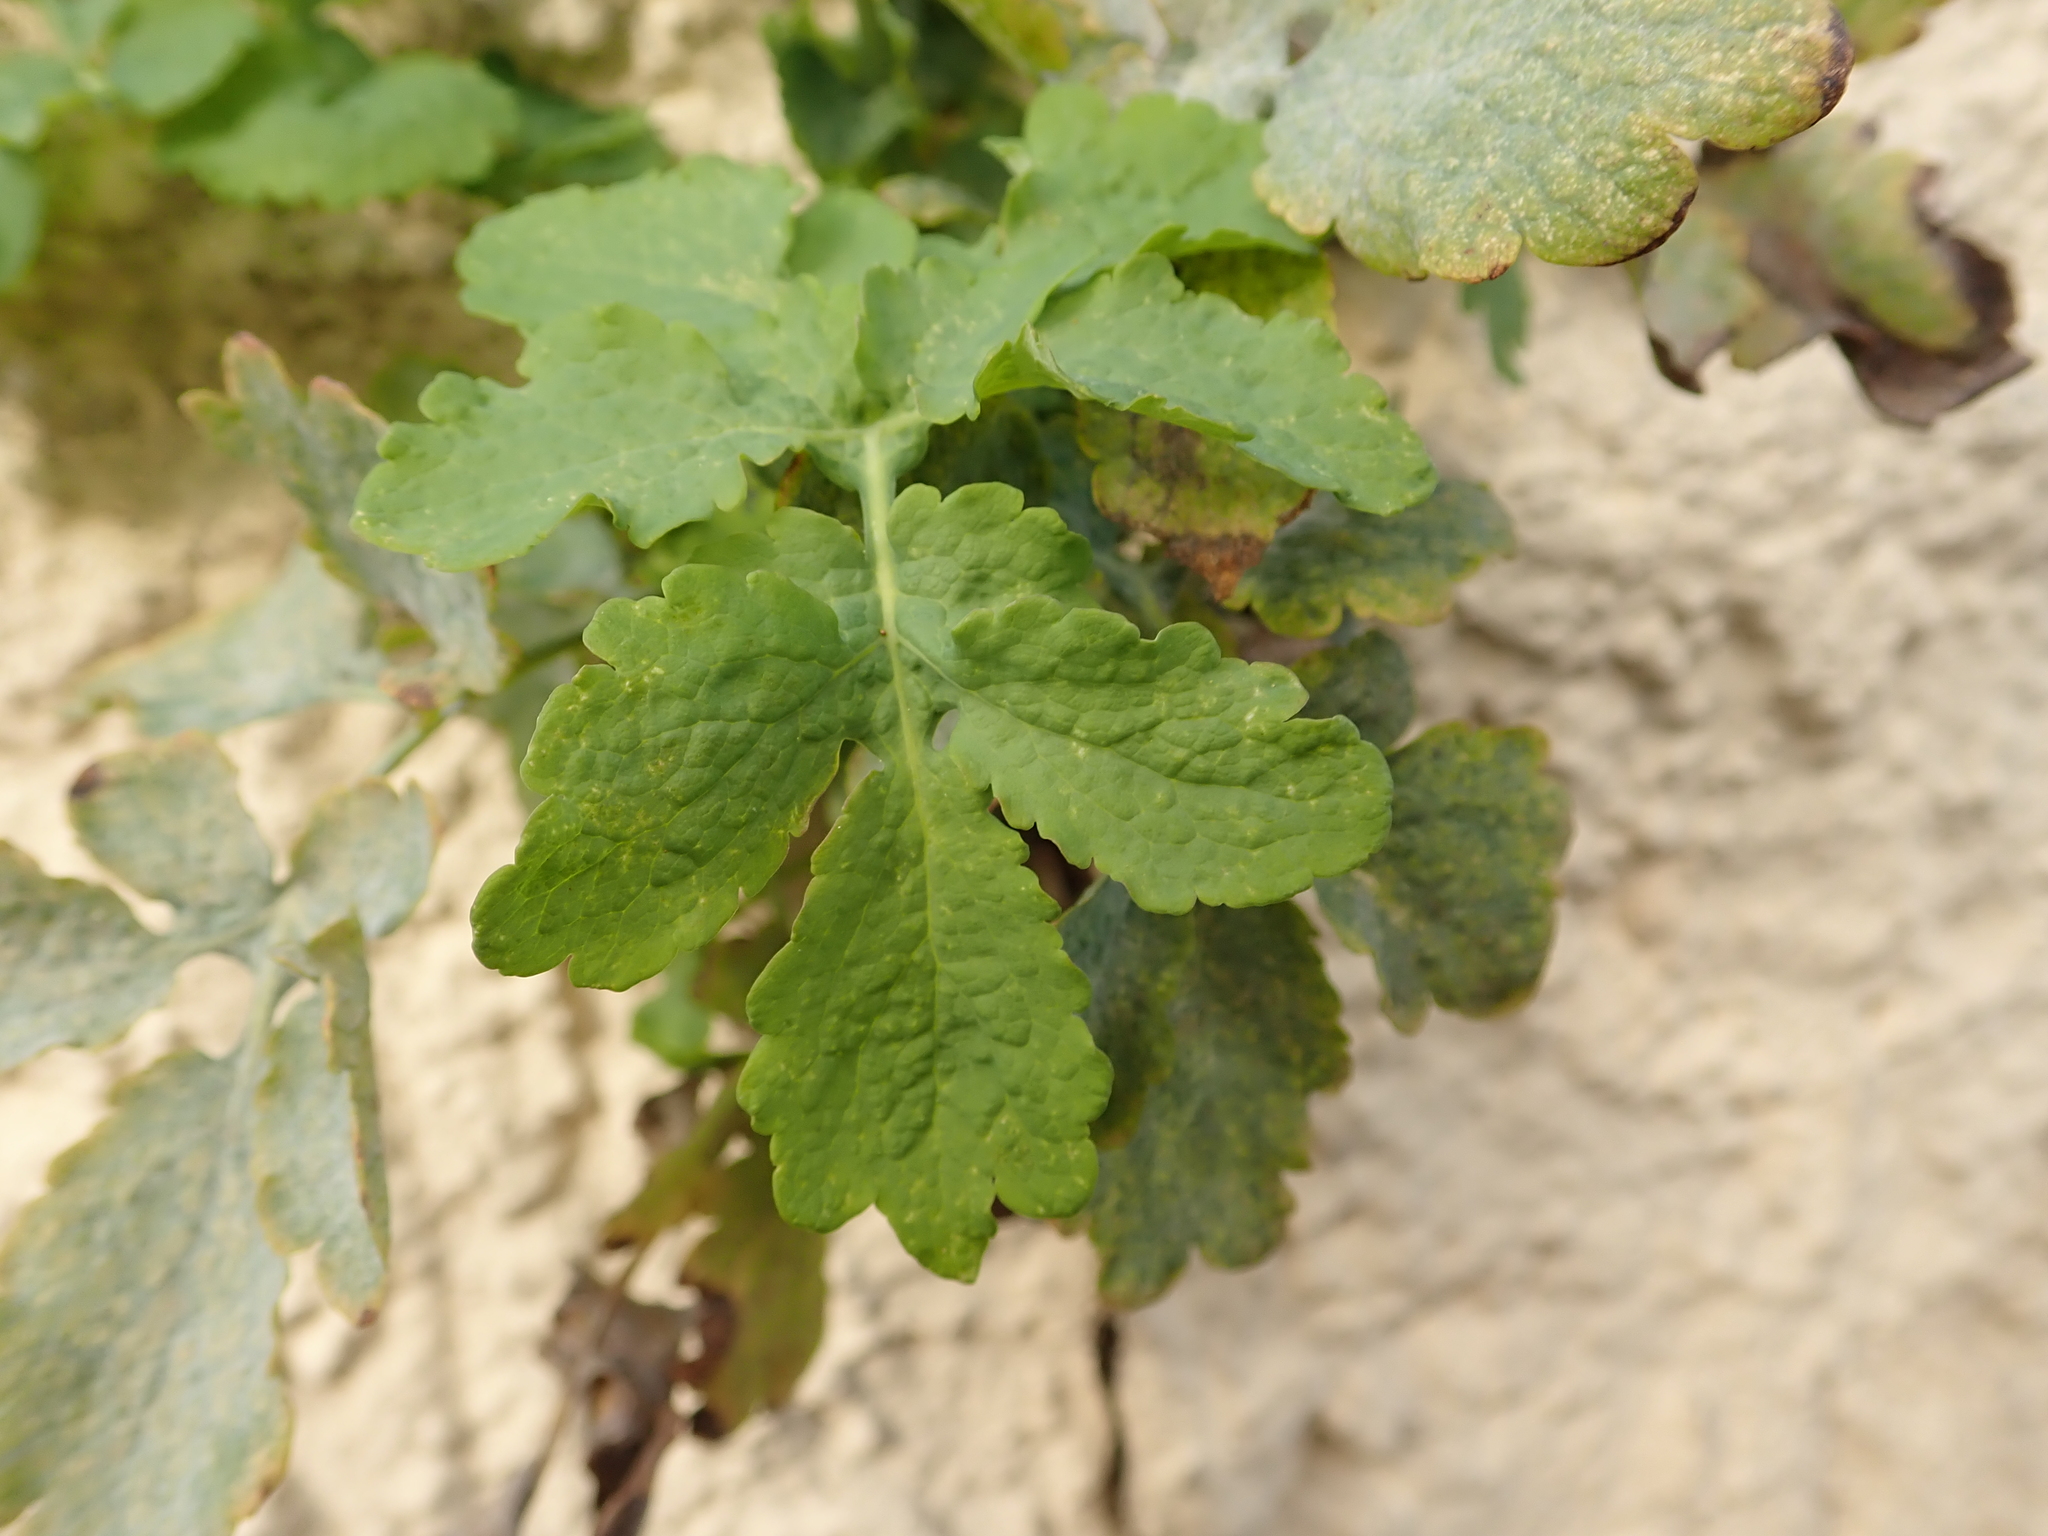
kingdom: Plantae
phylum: Tracheophyta
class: Magnoliopsida
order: Ranunculales
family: Papaveraceae
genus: Chelidonium
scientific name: Chelidonium majus
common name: Greater celandine
